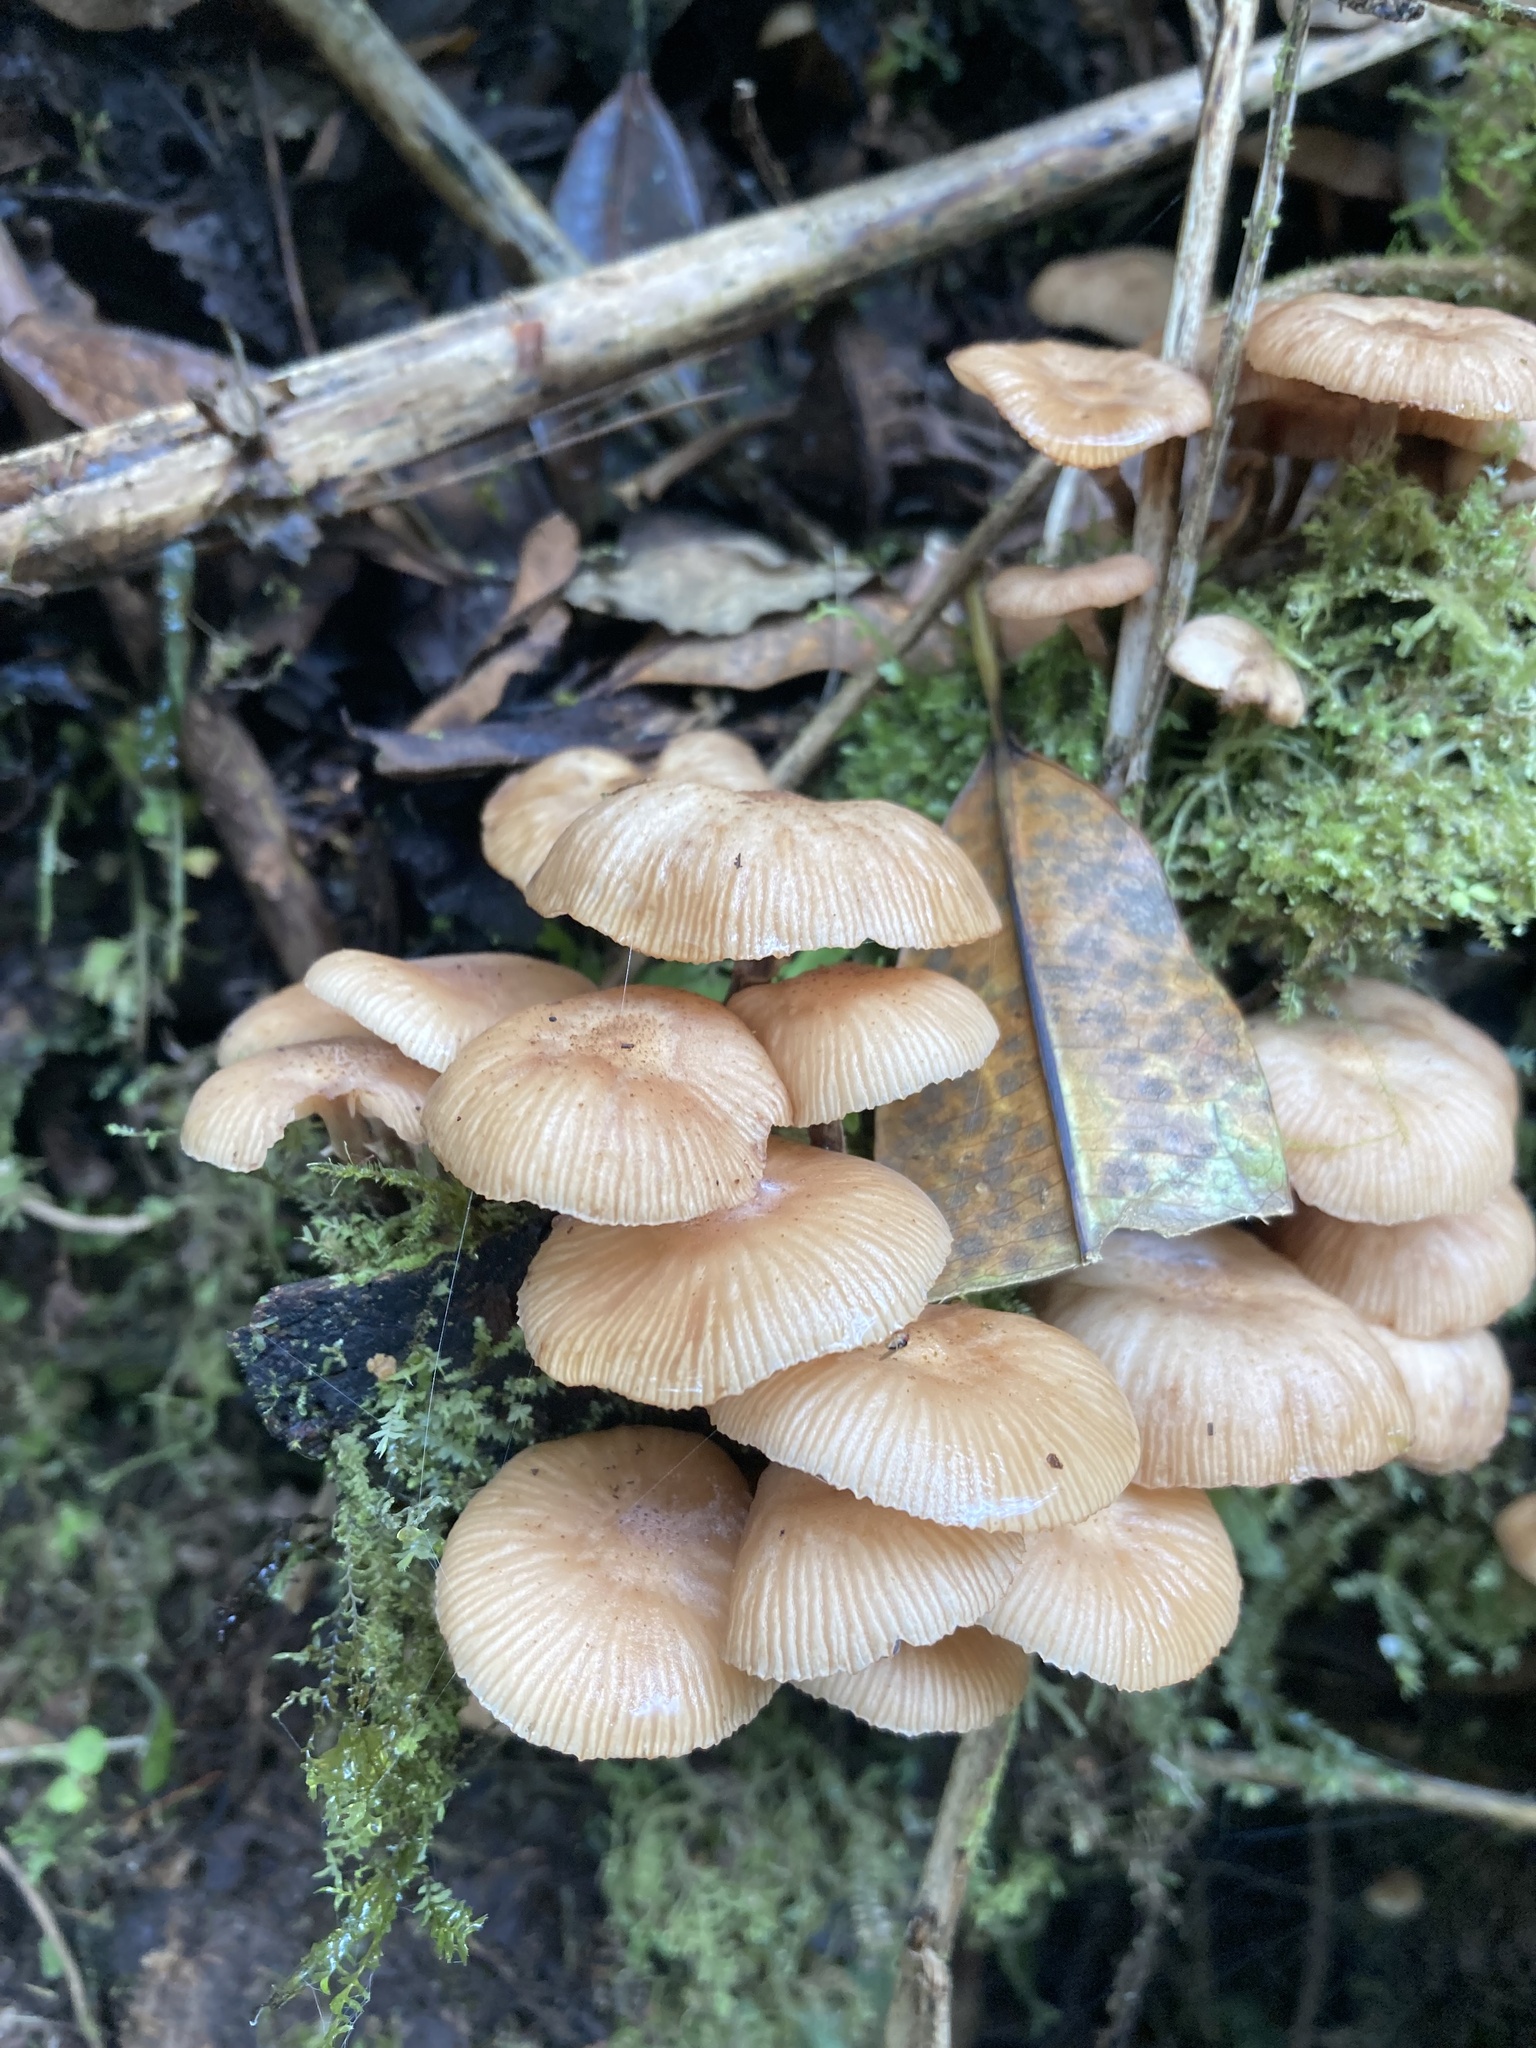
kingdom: Fungi
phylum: Basidiomycota
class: Agaricomycetes
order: Agaricales
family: Physalacriaceae
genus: Armillaria
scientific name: Armillaria puiggarii
